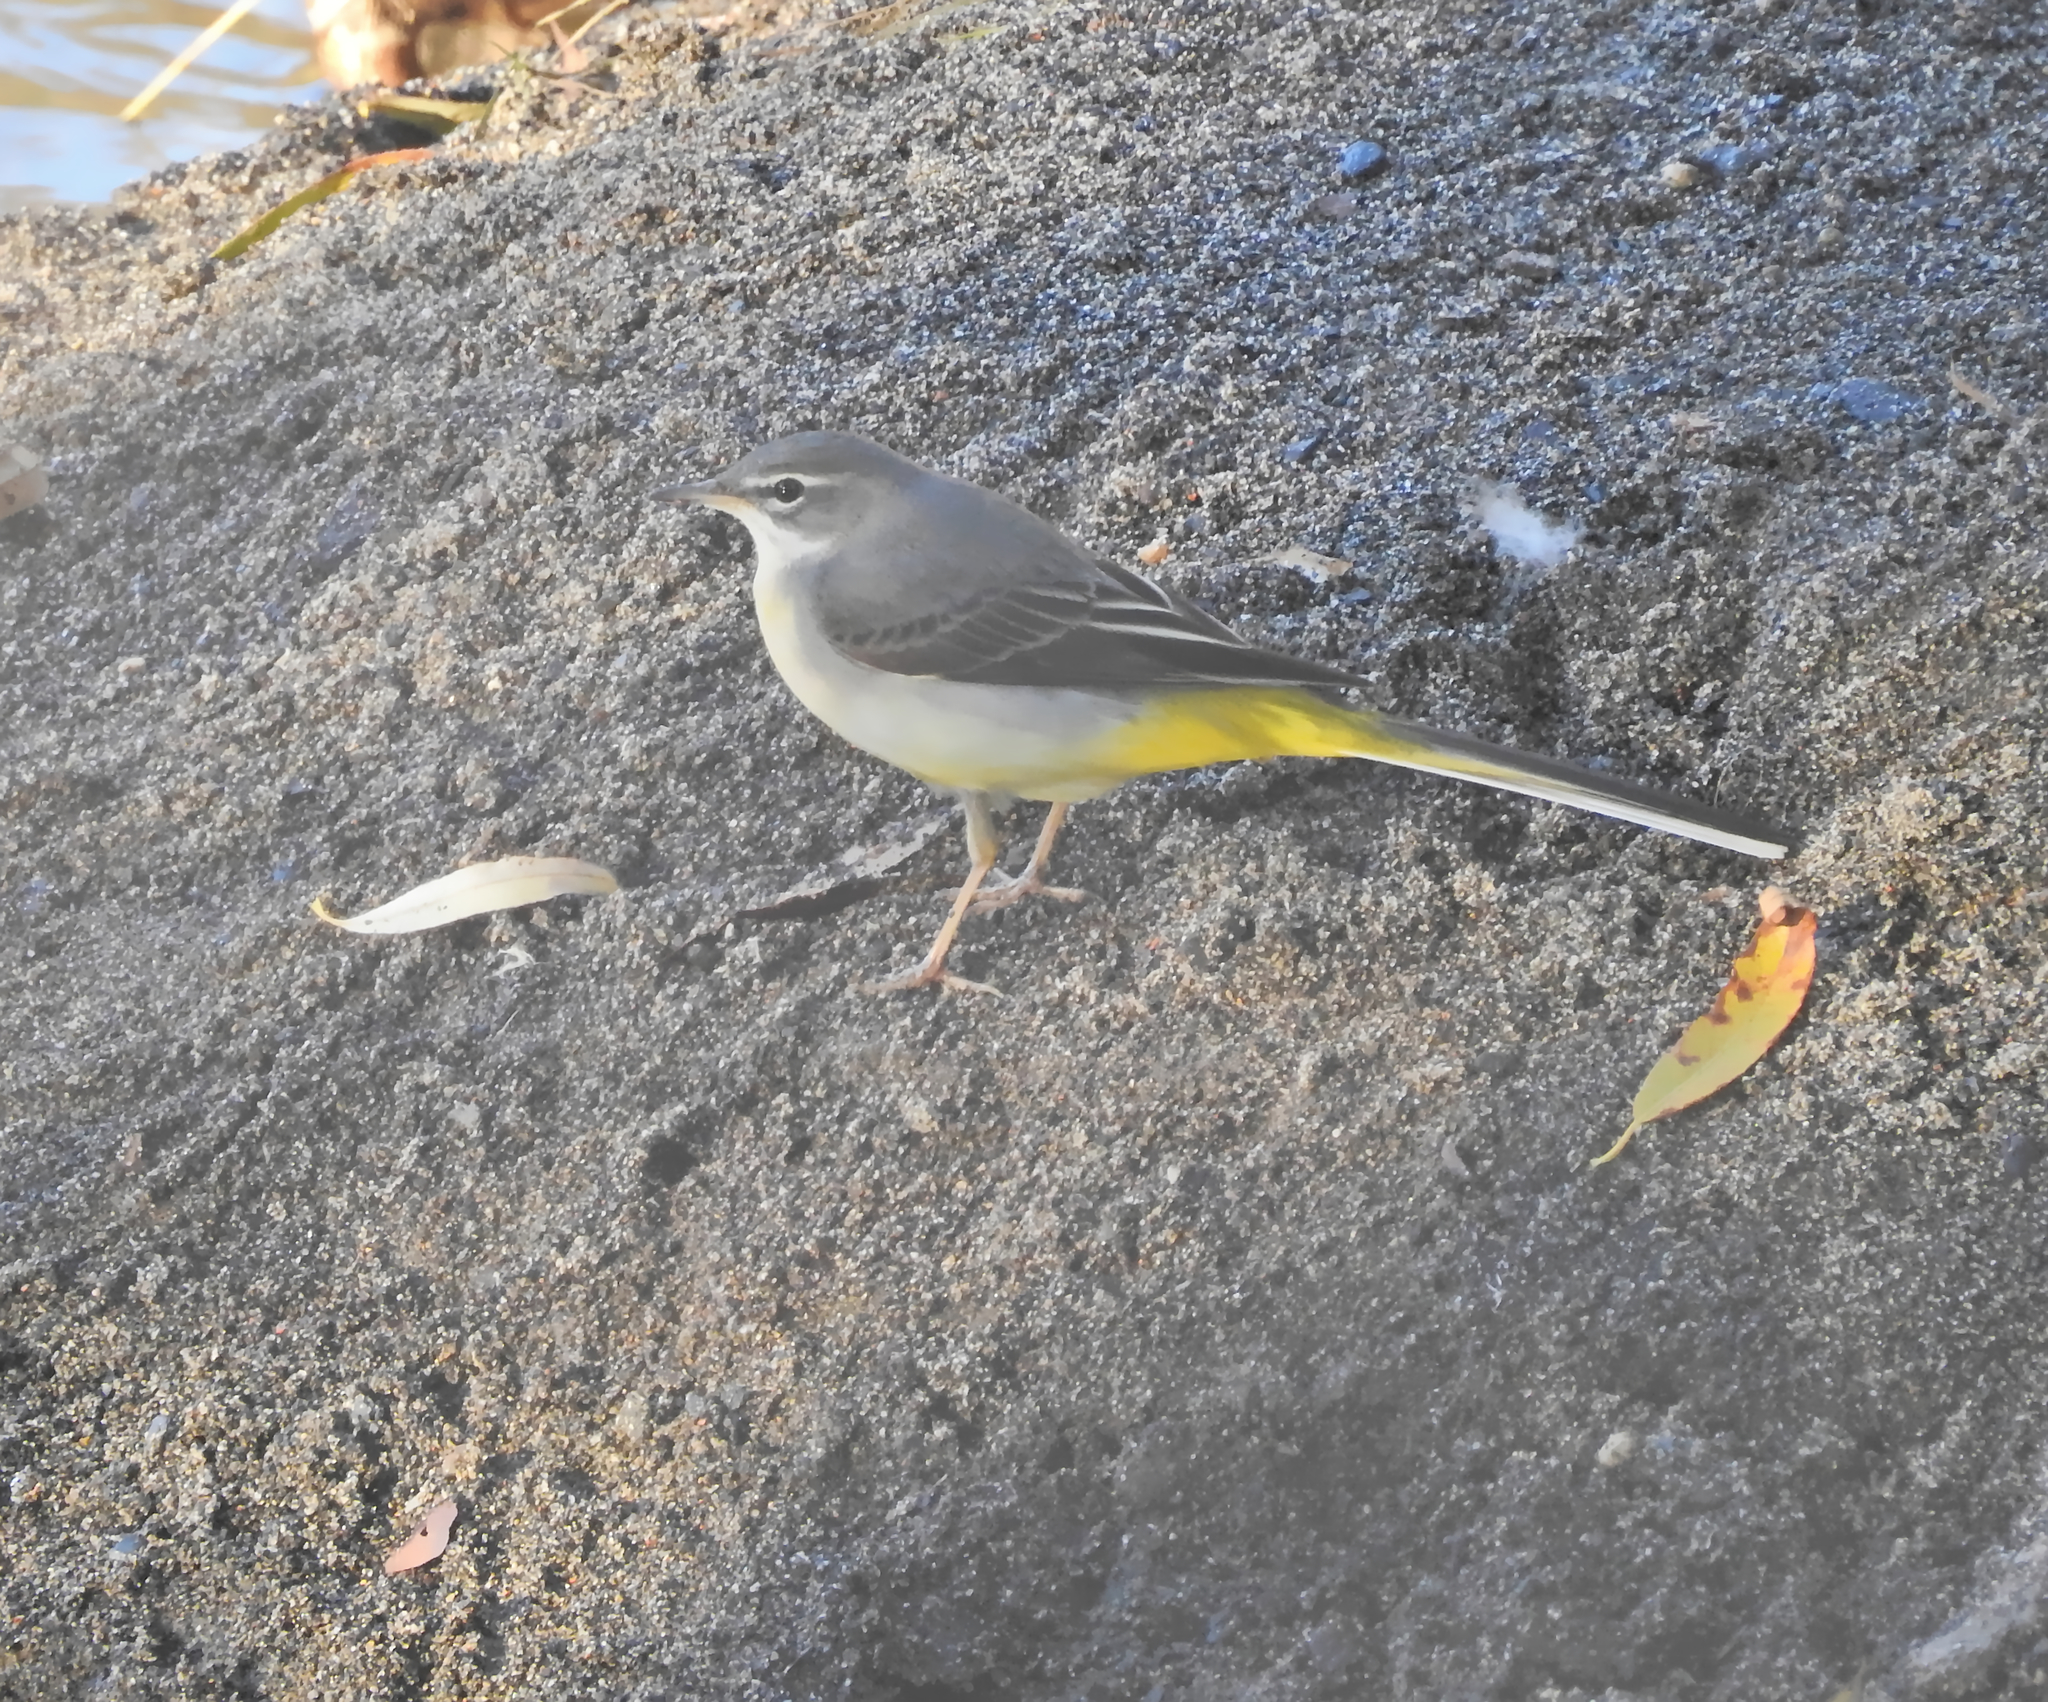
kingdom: Animalia
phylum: Chordata
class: Aves
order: Passeriformes
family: Motacillidae
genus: Motacilla
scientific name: Motacilla cinerea
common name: Grey wagtail
